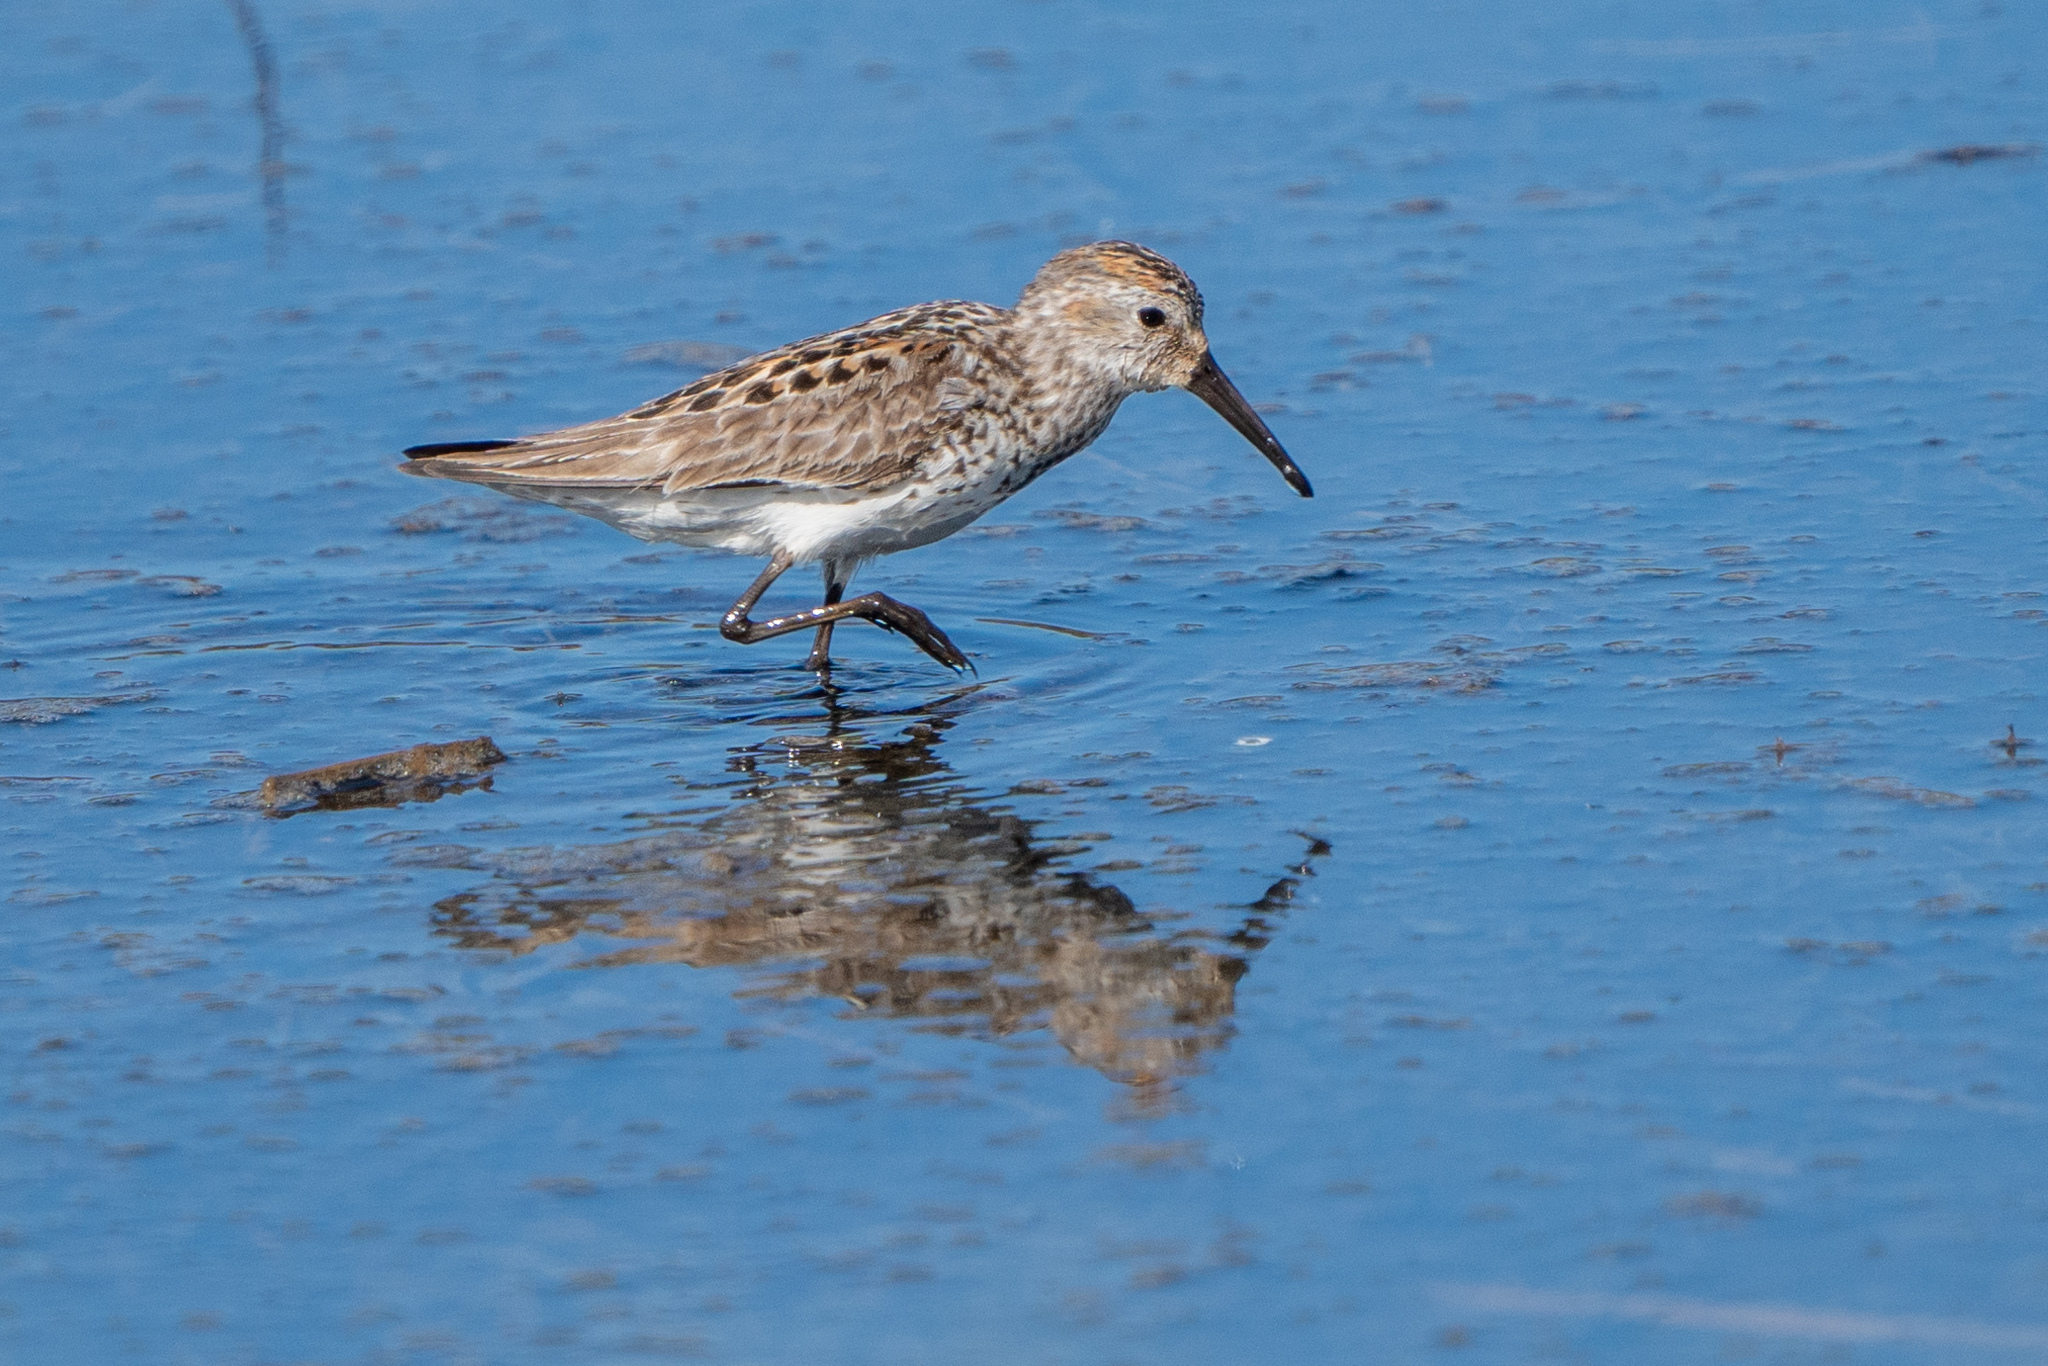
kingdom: Animalia
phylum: Chordata
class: Aves
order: Charadriiformes
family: Scolopacidae
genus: Calidris
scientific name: Calidris mauri
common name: Western sandpiper
